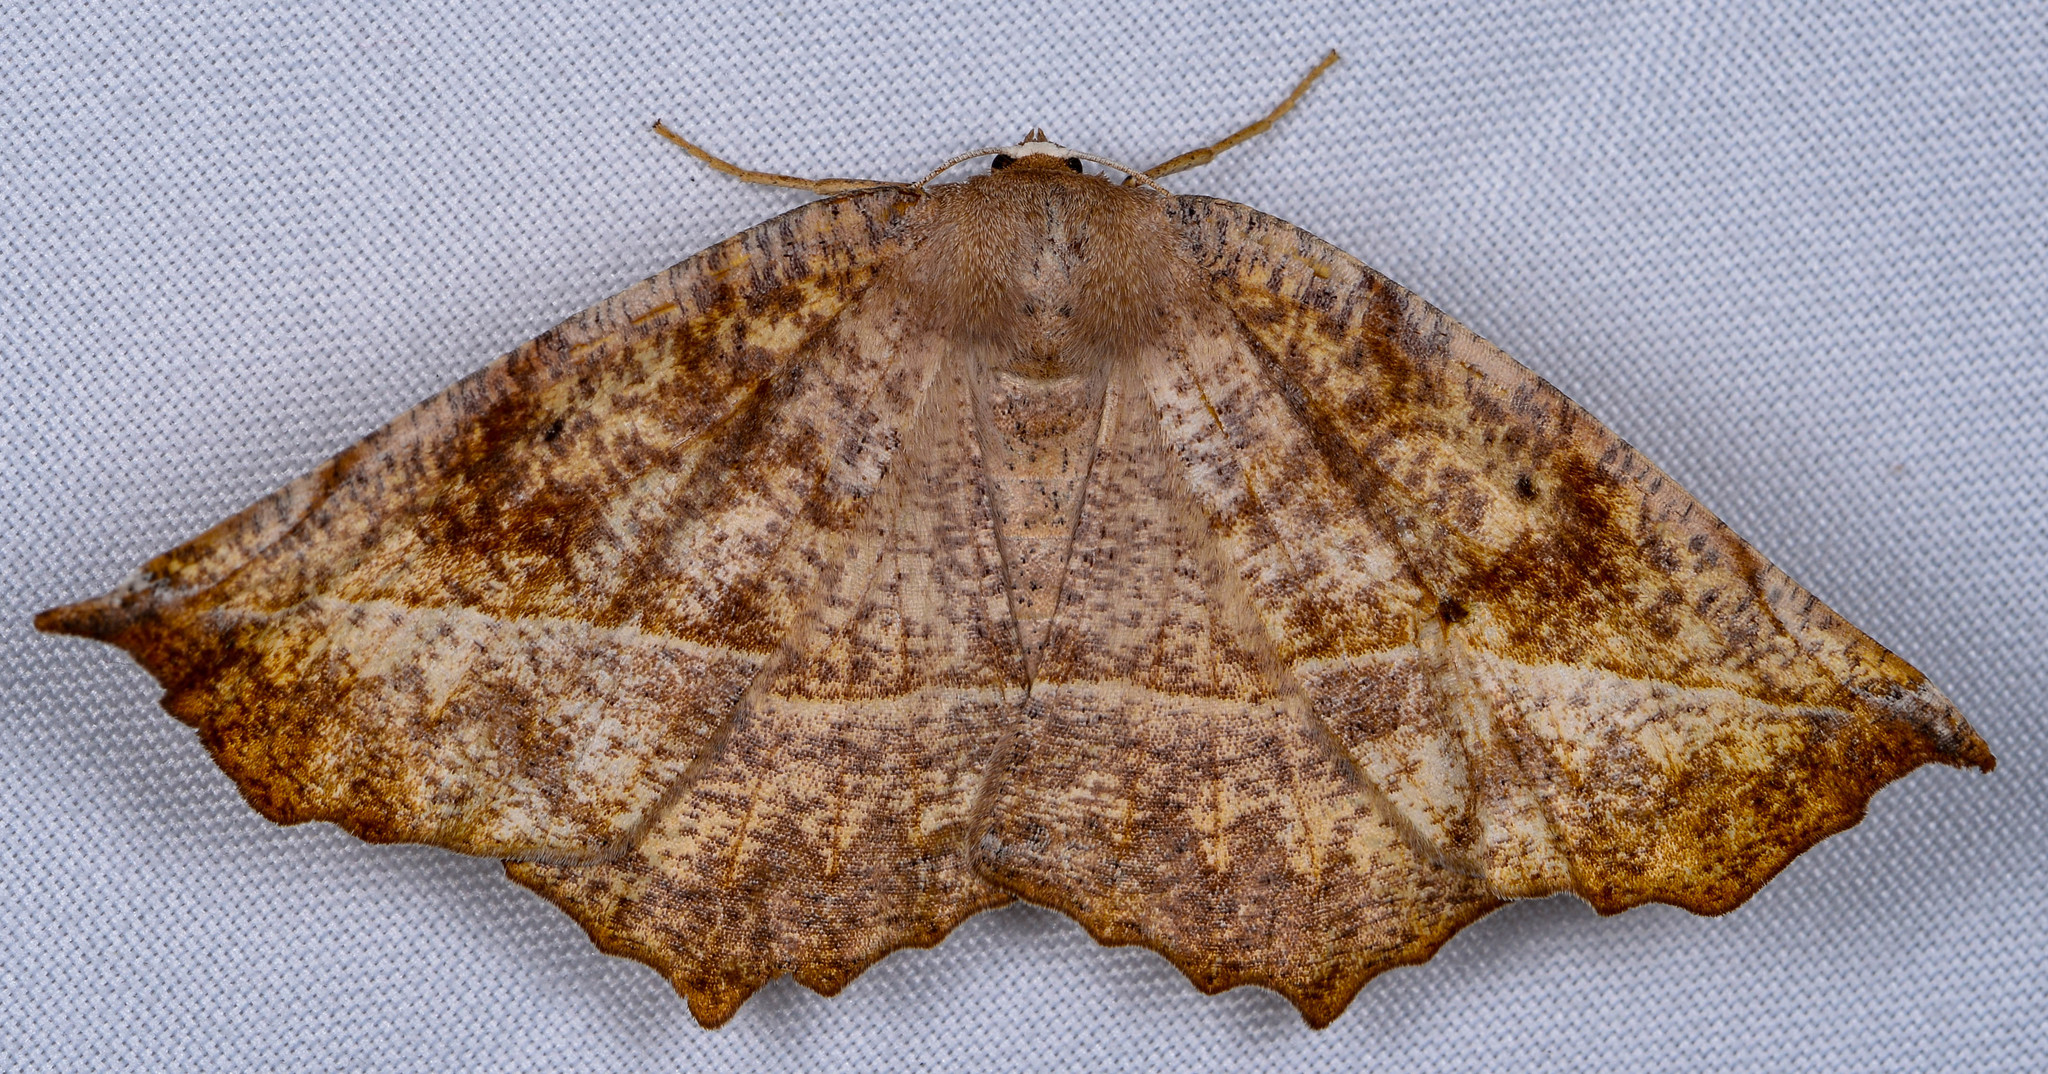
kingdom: Animalia
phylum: Arthropoda
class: Insecta
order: Lepidoptera
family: Geometridae
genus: Eutrapela
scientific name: Eutrapela clemataria
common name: Curved-toothed geometer
